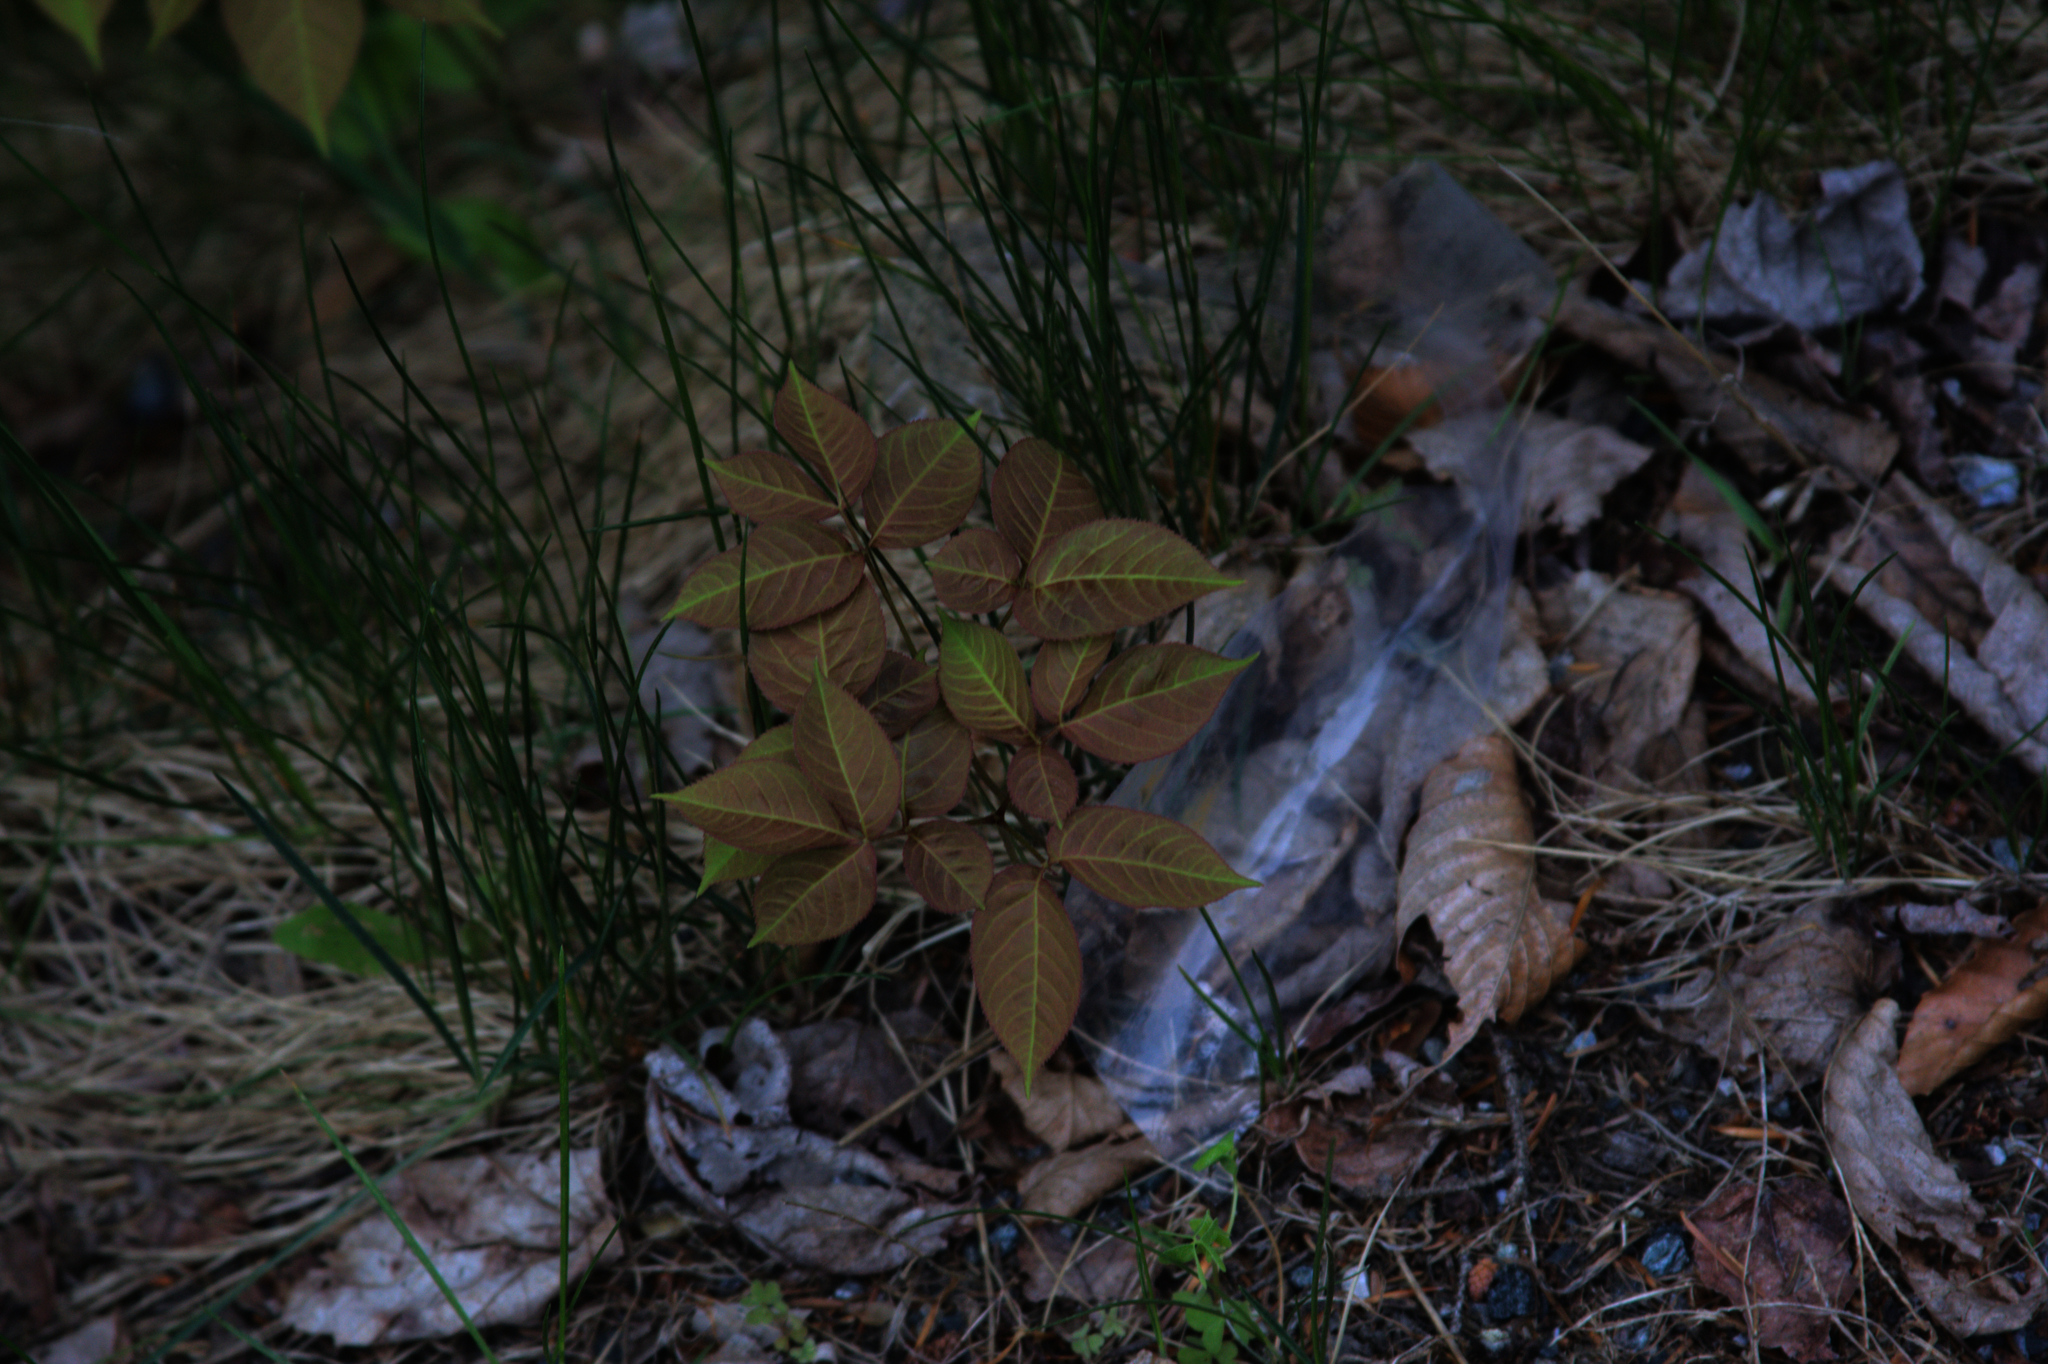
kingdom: Plantae
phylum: Tracheophyta
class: Magnoliopsida
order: Apiales
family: Araliaceae
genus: Aralia
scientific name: Aralia nudicaulis
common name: Wild sarsaparilla
